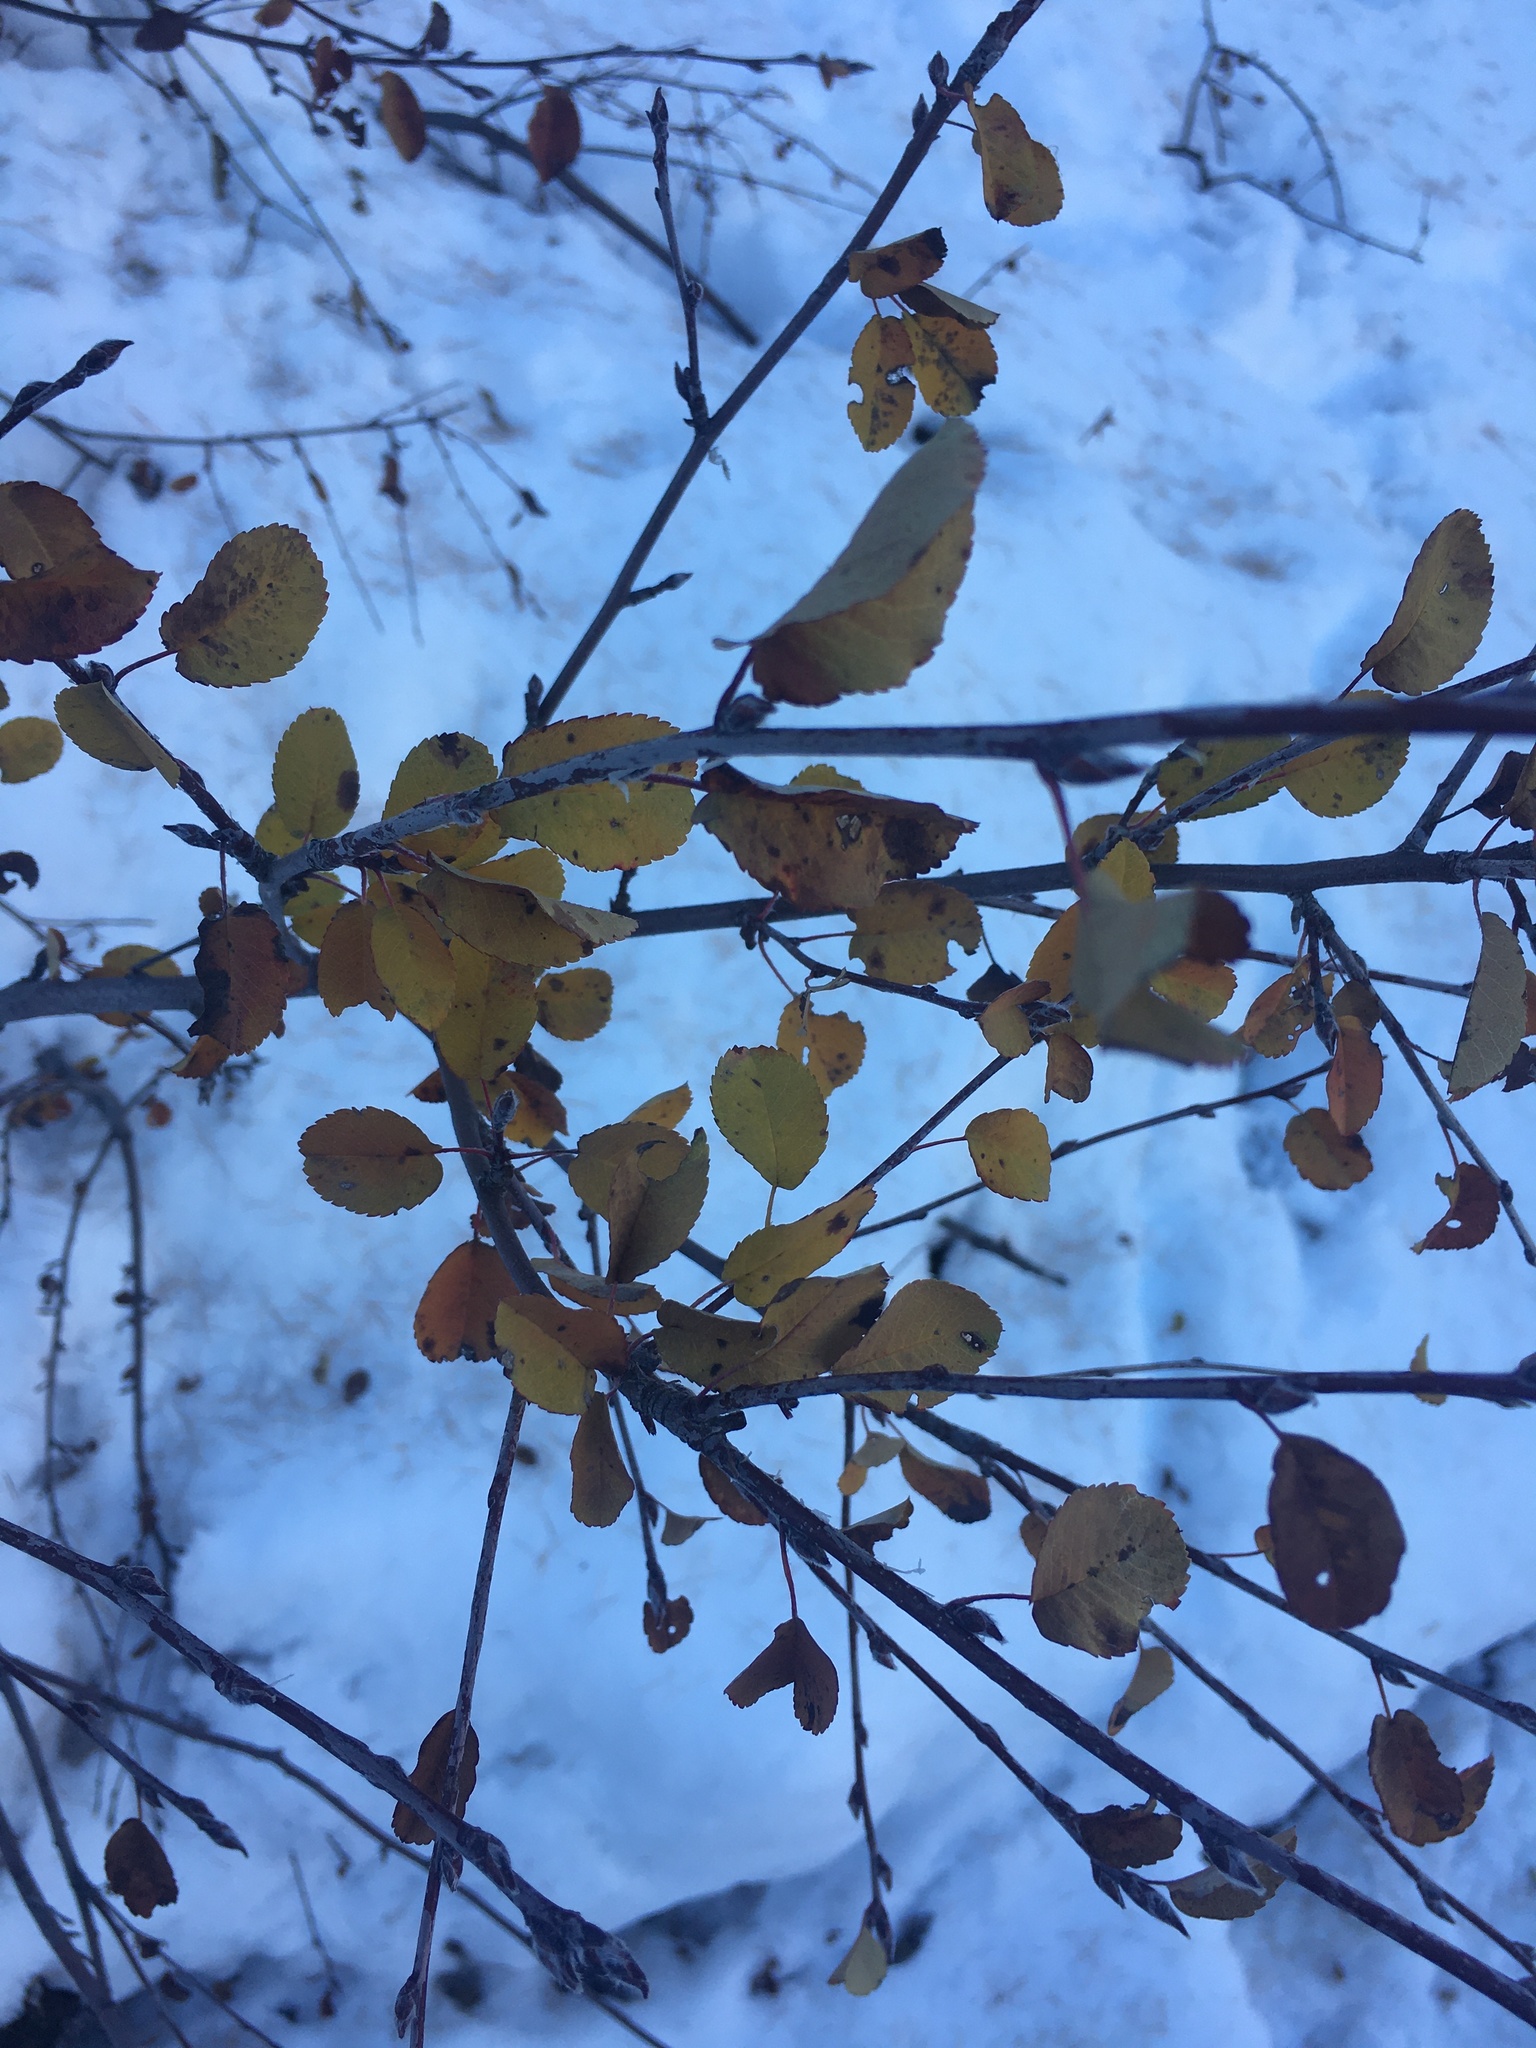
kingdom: Plantae
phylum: Tracheophyta
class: Magnoliopsida
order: Ranunculales
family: Berberidaceae
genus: Berberis
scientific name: Berberis vulgaris
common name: Barberry
